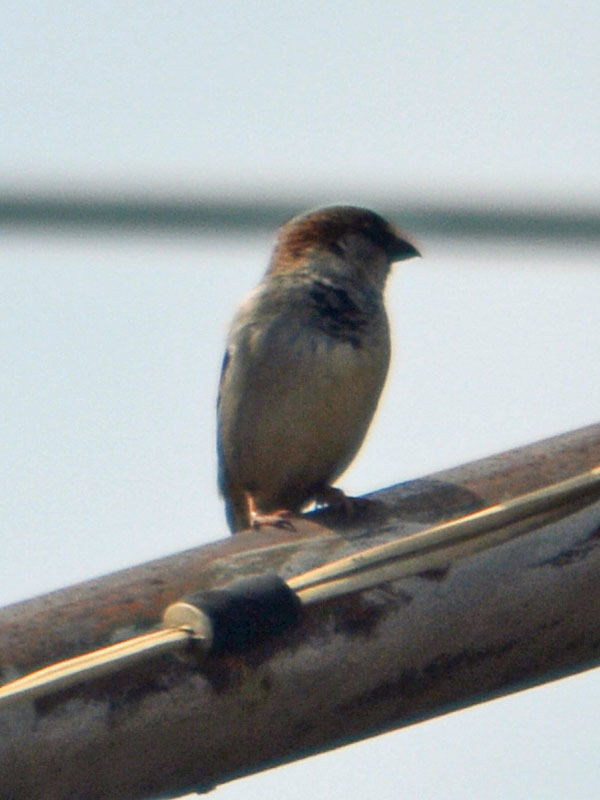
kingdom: Animalia
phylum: Chordata
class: Aves
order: Passeriformes
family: Passeridae
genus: Passer
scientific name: Passer domesticus
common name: House sparrow
